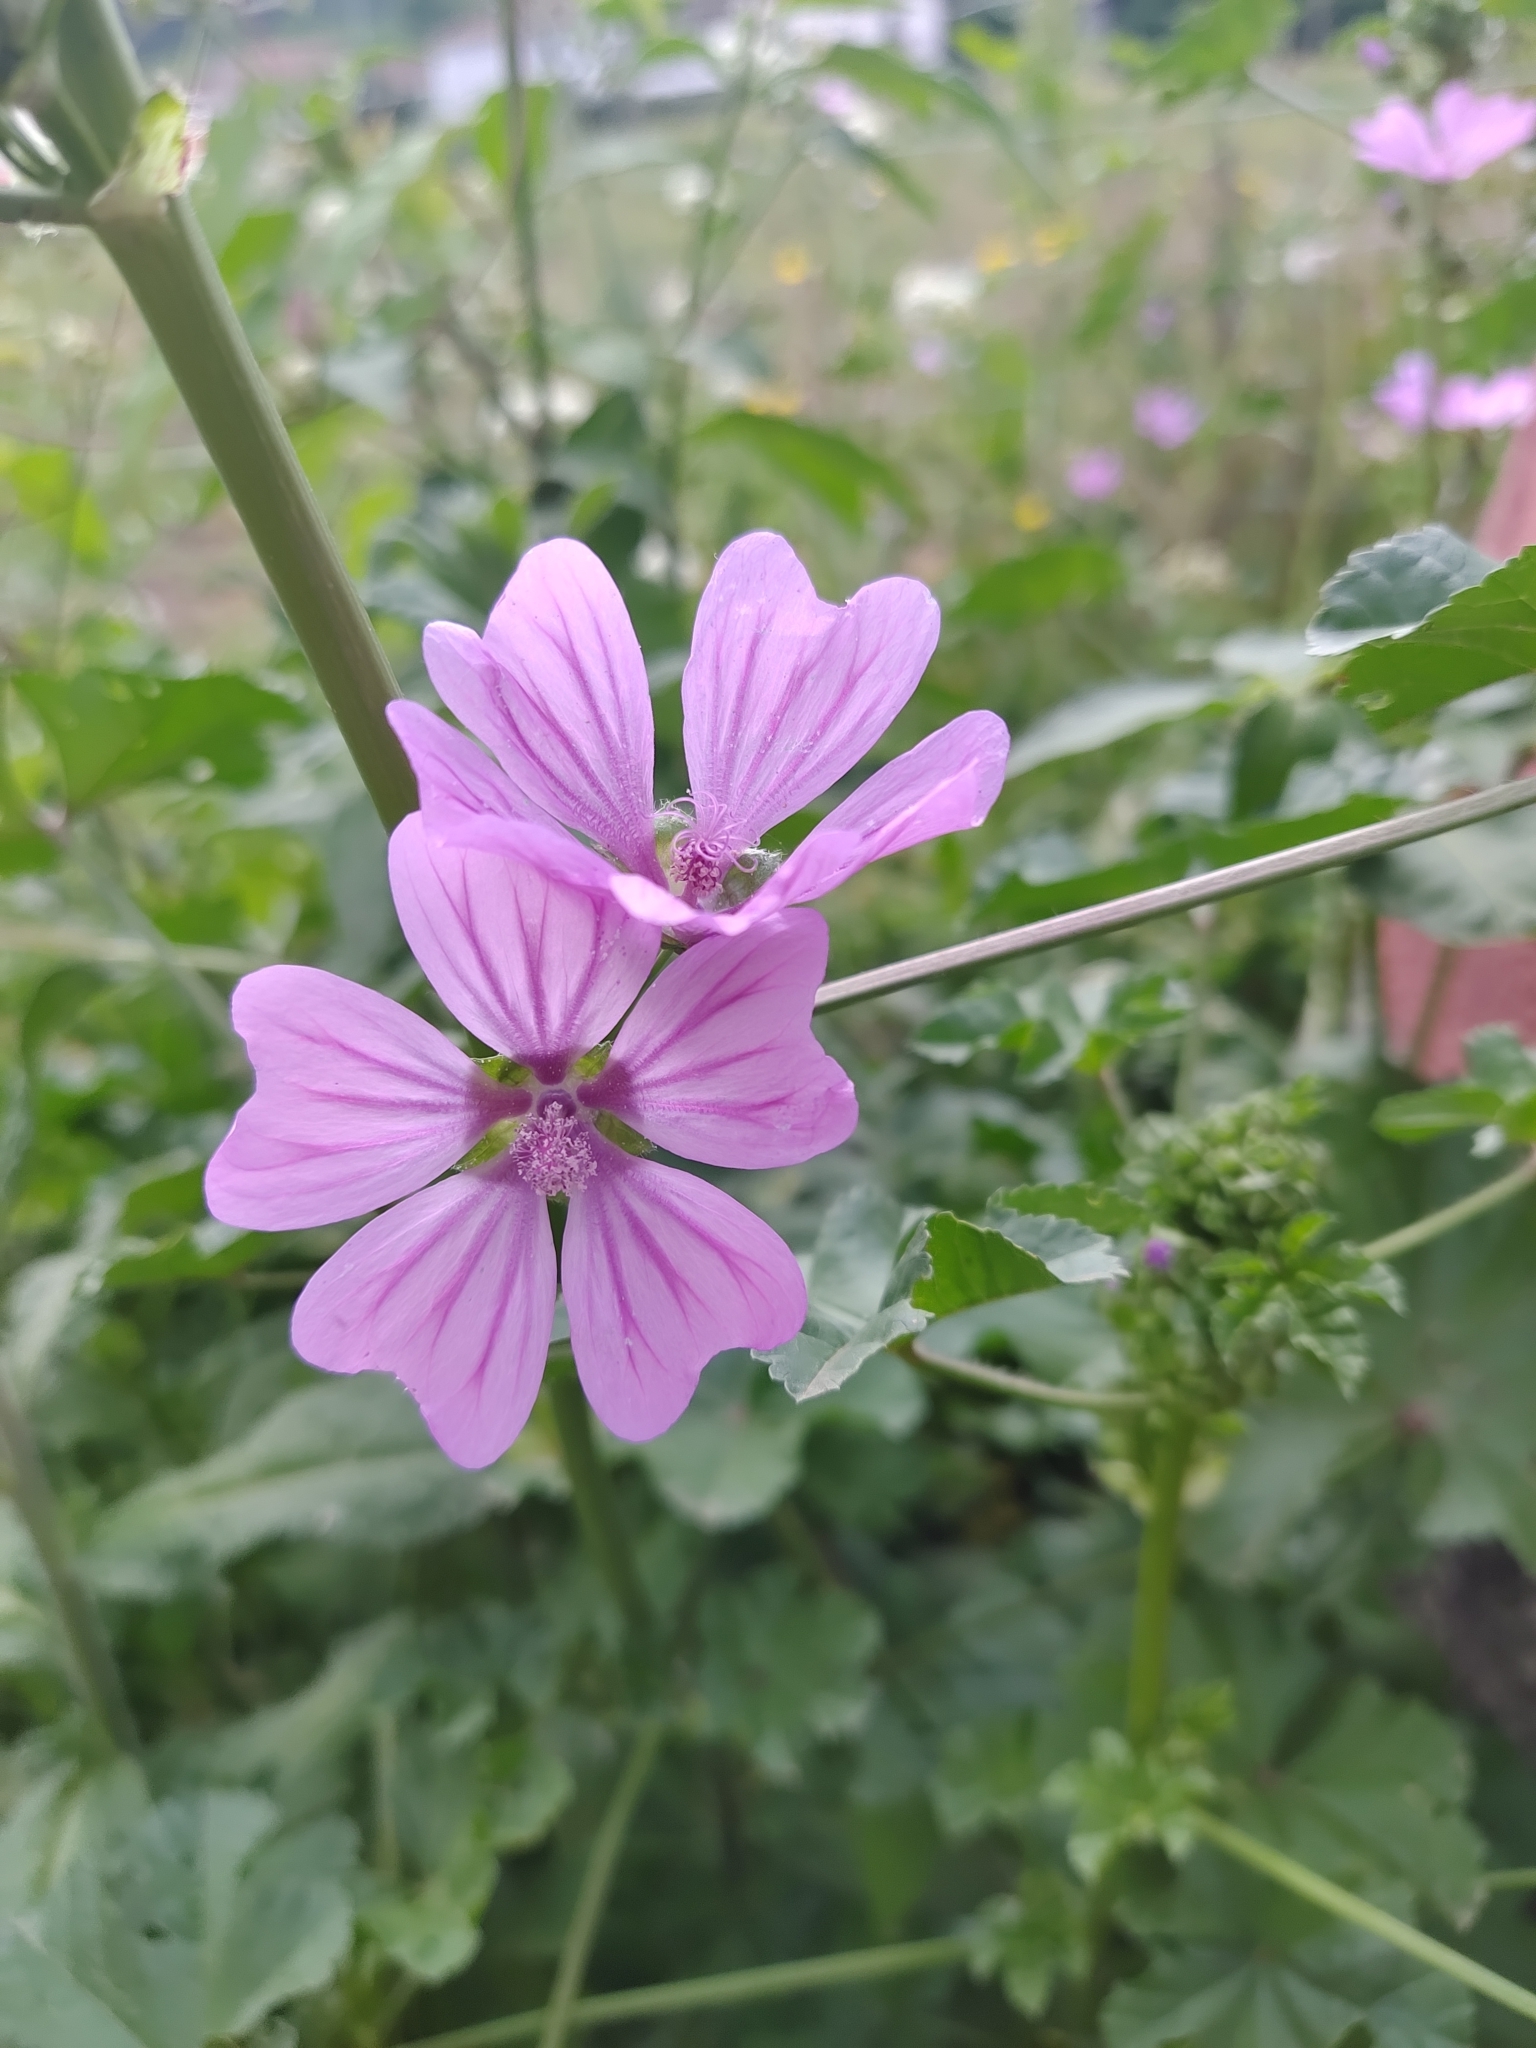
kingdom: Plantae
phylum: Tracheophyta
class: Magnoliopsida
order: Malvales
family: Malvaceae
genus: Malva
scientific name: Malva sylvestris
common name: Common mallow
